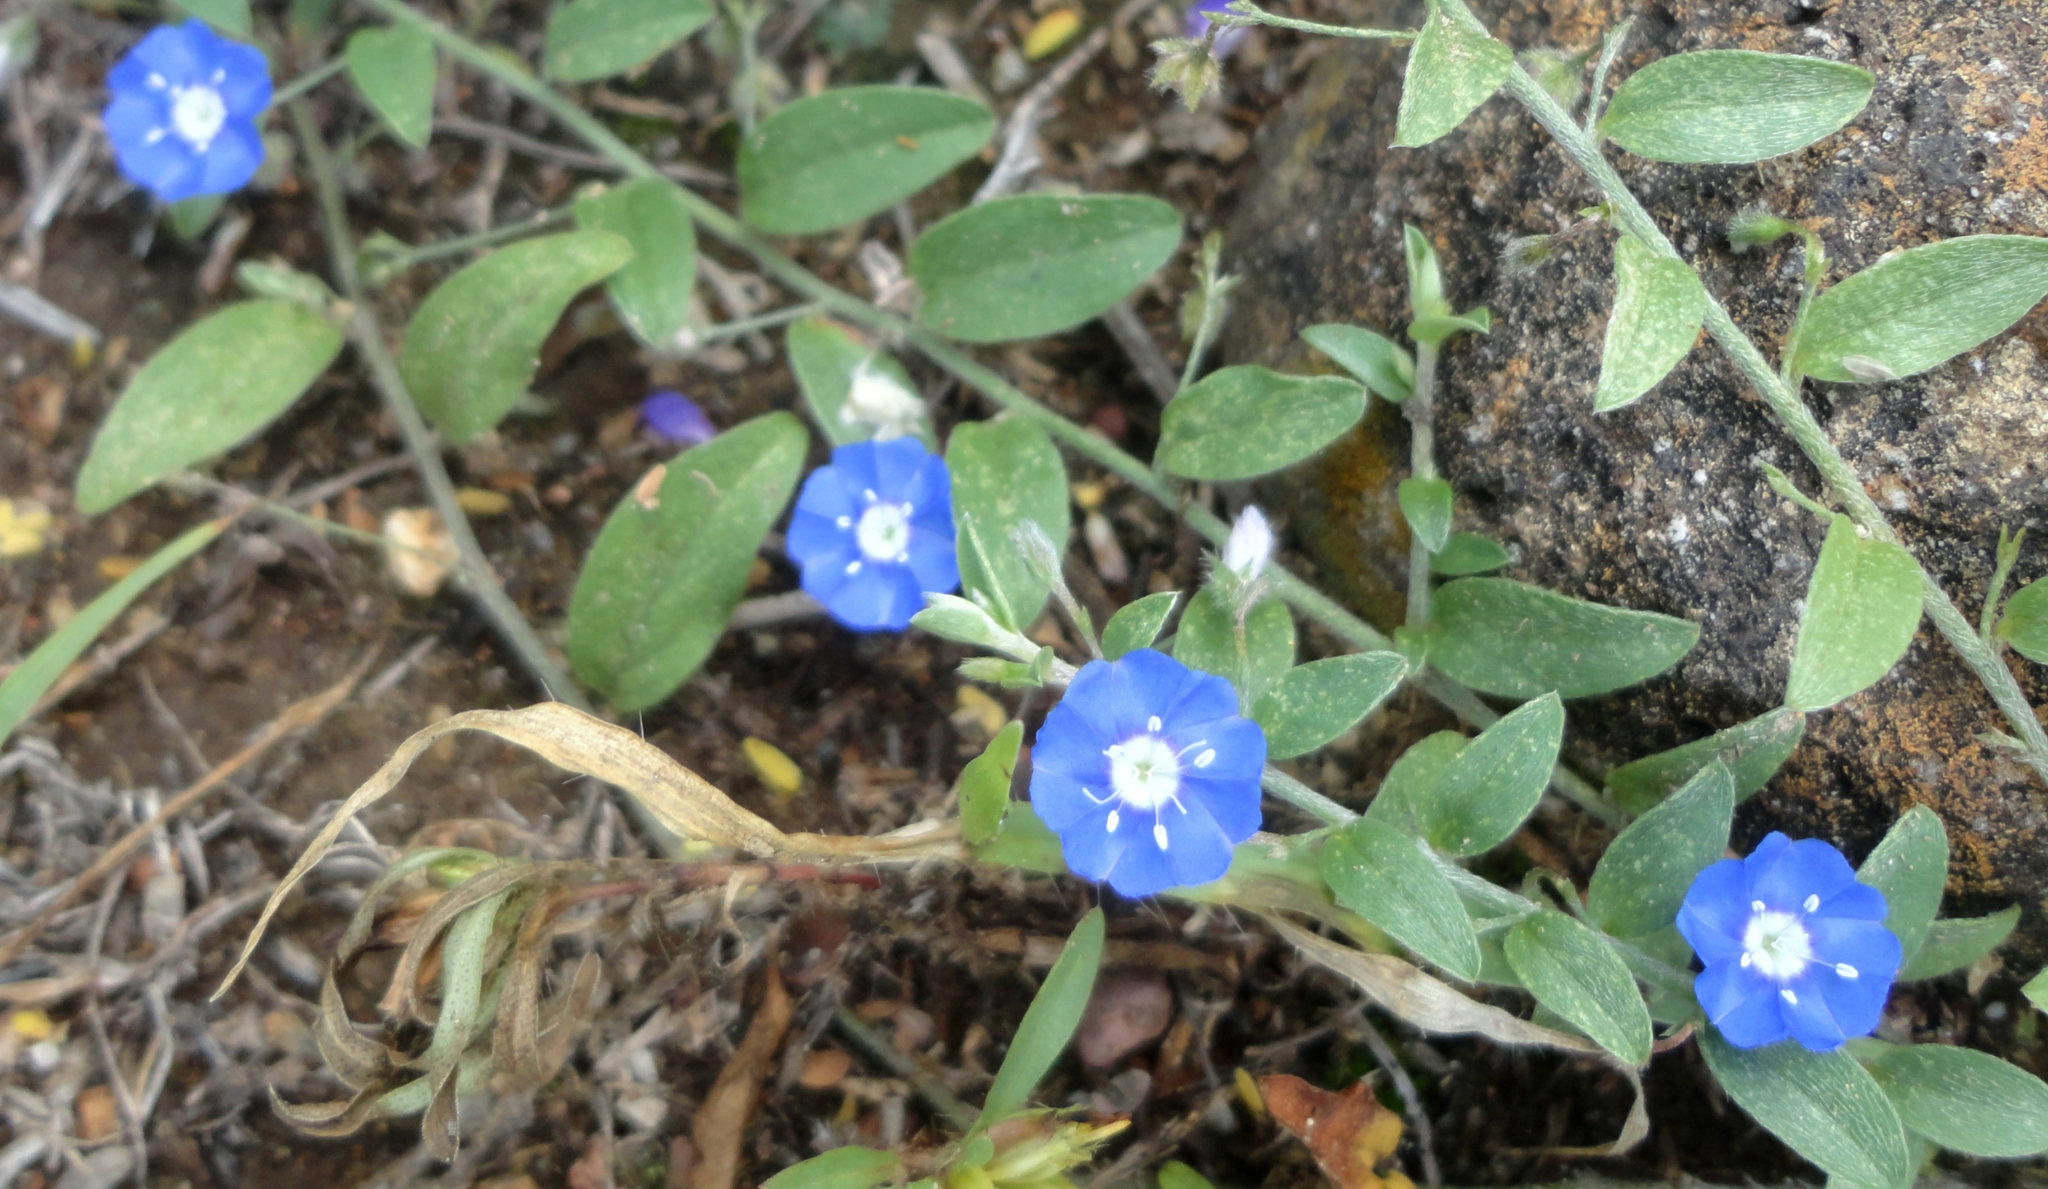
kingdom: Plantae
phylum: Tracheophyta
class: Magnoliopsida
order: Solanales
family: Convolvulaceae
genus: Evolvulus
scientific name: Evolvulus alsinoides
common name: Slender dwarf morning-glory
